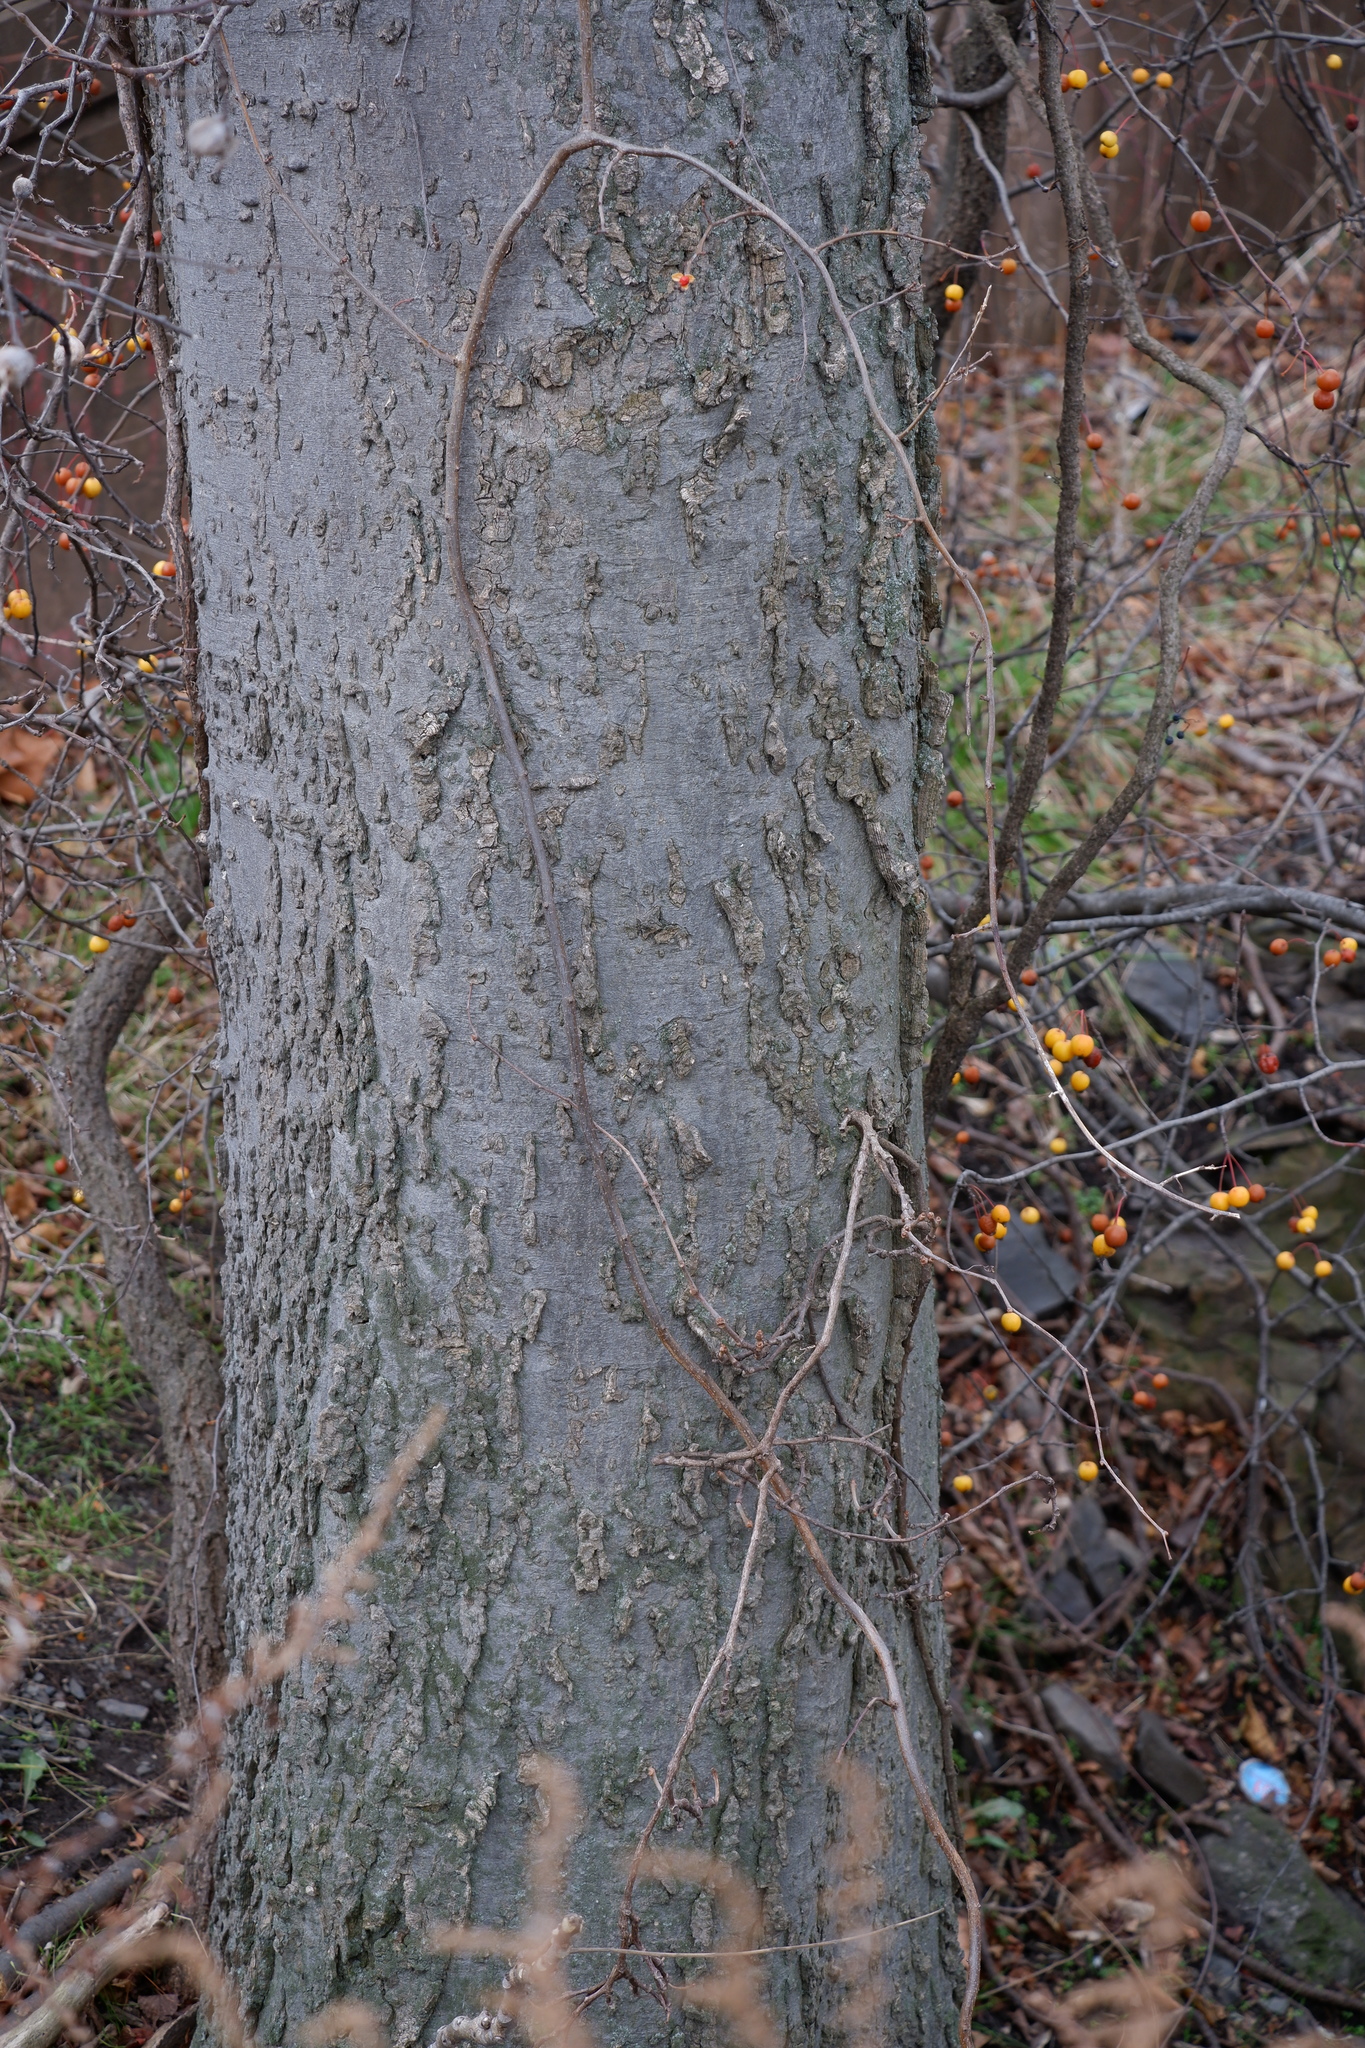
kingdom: Plantae
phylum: Tracheophyta
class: Magnoliopsida
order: Rosales
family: Cannabaceae
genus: Celtis
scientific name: Celtis occidentalis
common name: Common hackberry
